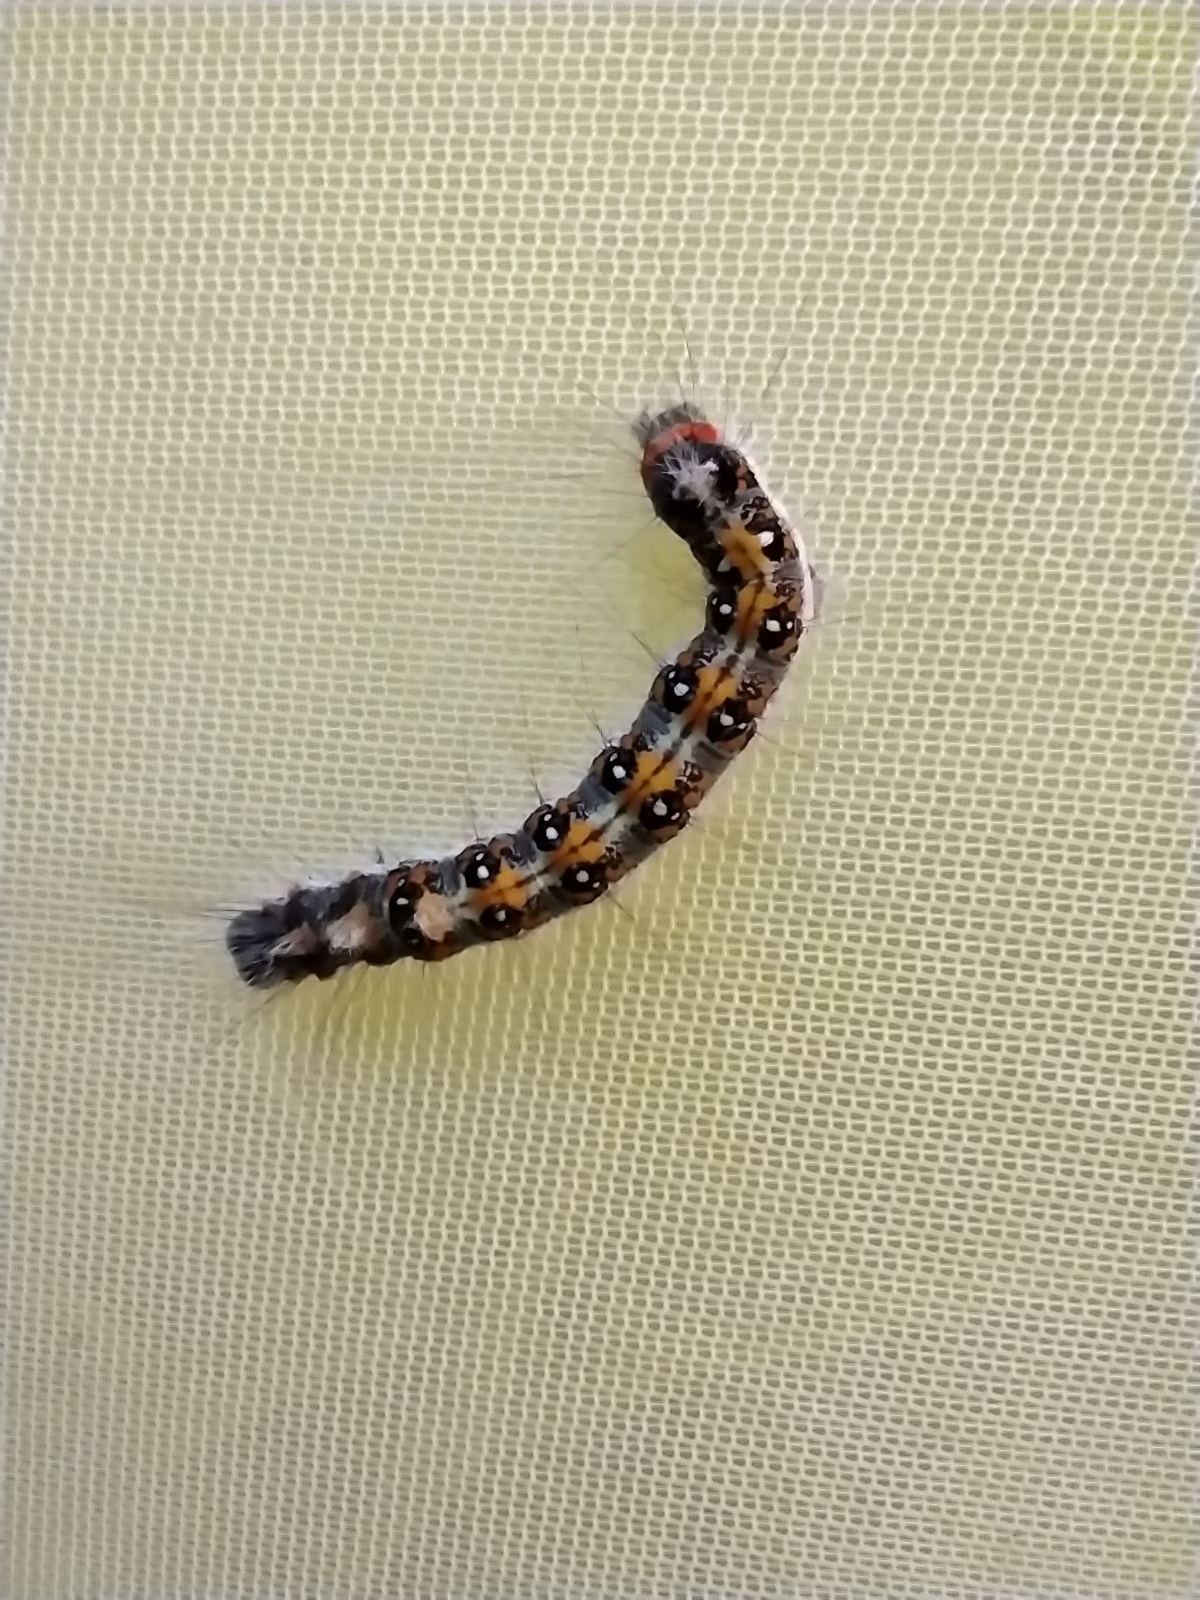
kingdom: Animalia
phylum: Arthropoda
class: Insecta
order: Lepidoptera
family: Noctuidae
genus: Acronicta
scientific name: Acronicta tridens
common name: Dark dagger
